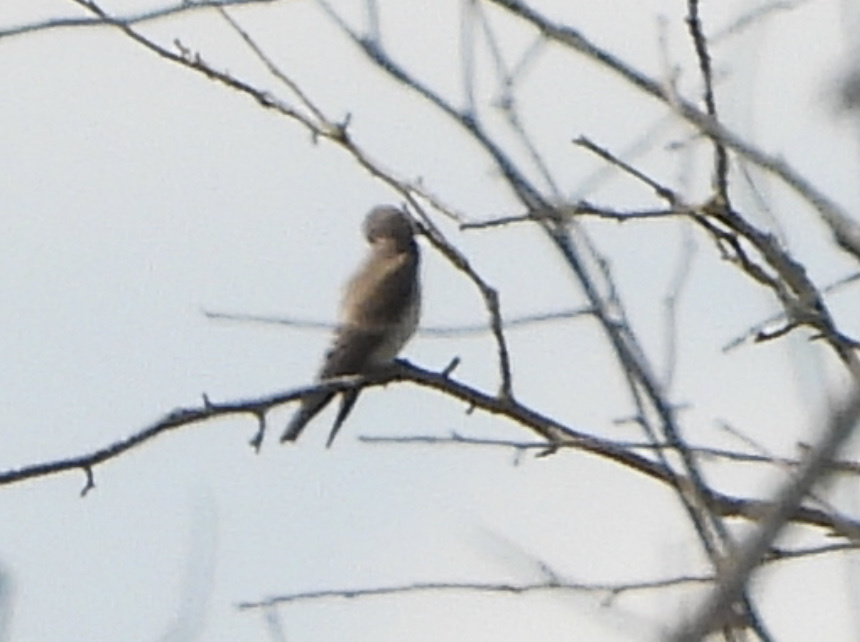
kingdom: Animalia
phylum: Chordata
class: Aves
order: Passeriformes
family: Hirundinidae
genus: Stelgidopteryx
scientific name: Stelgidopteryx serripennis
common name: Northern rough-winged swallow
